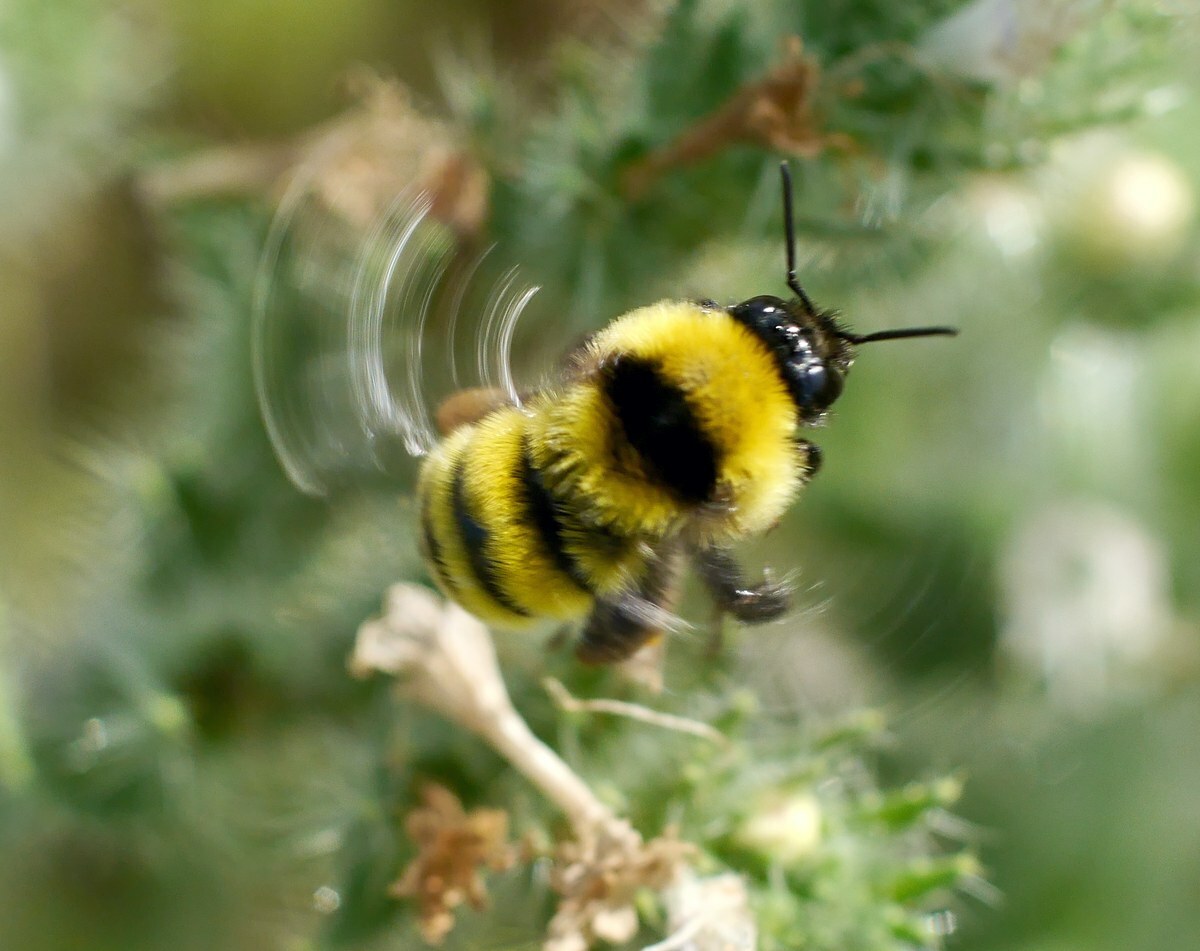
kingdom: Animalia
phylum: Arthropoda
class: Insecta
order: Hymenoptera
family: Apidae
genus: Bombus
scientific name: Bombus zonatus
